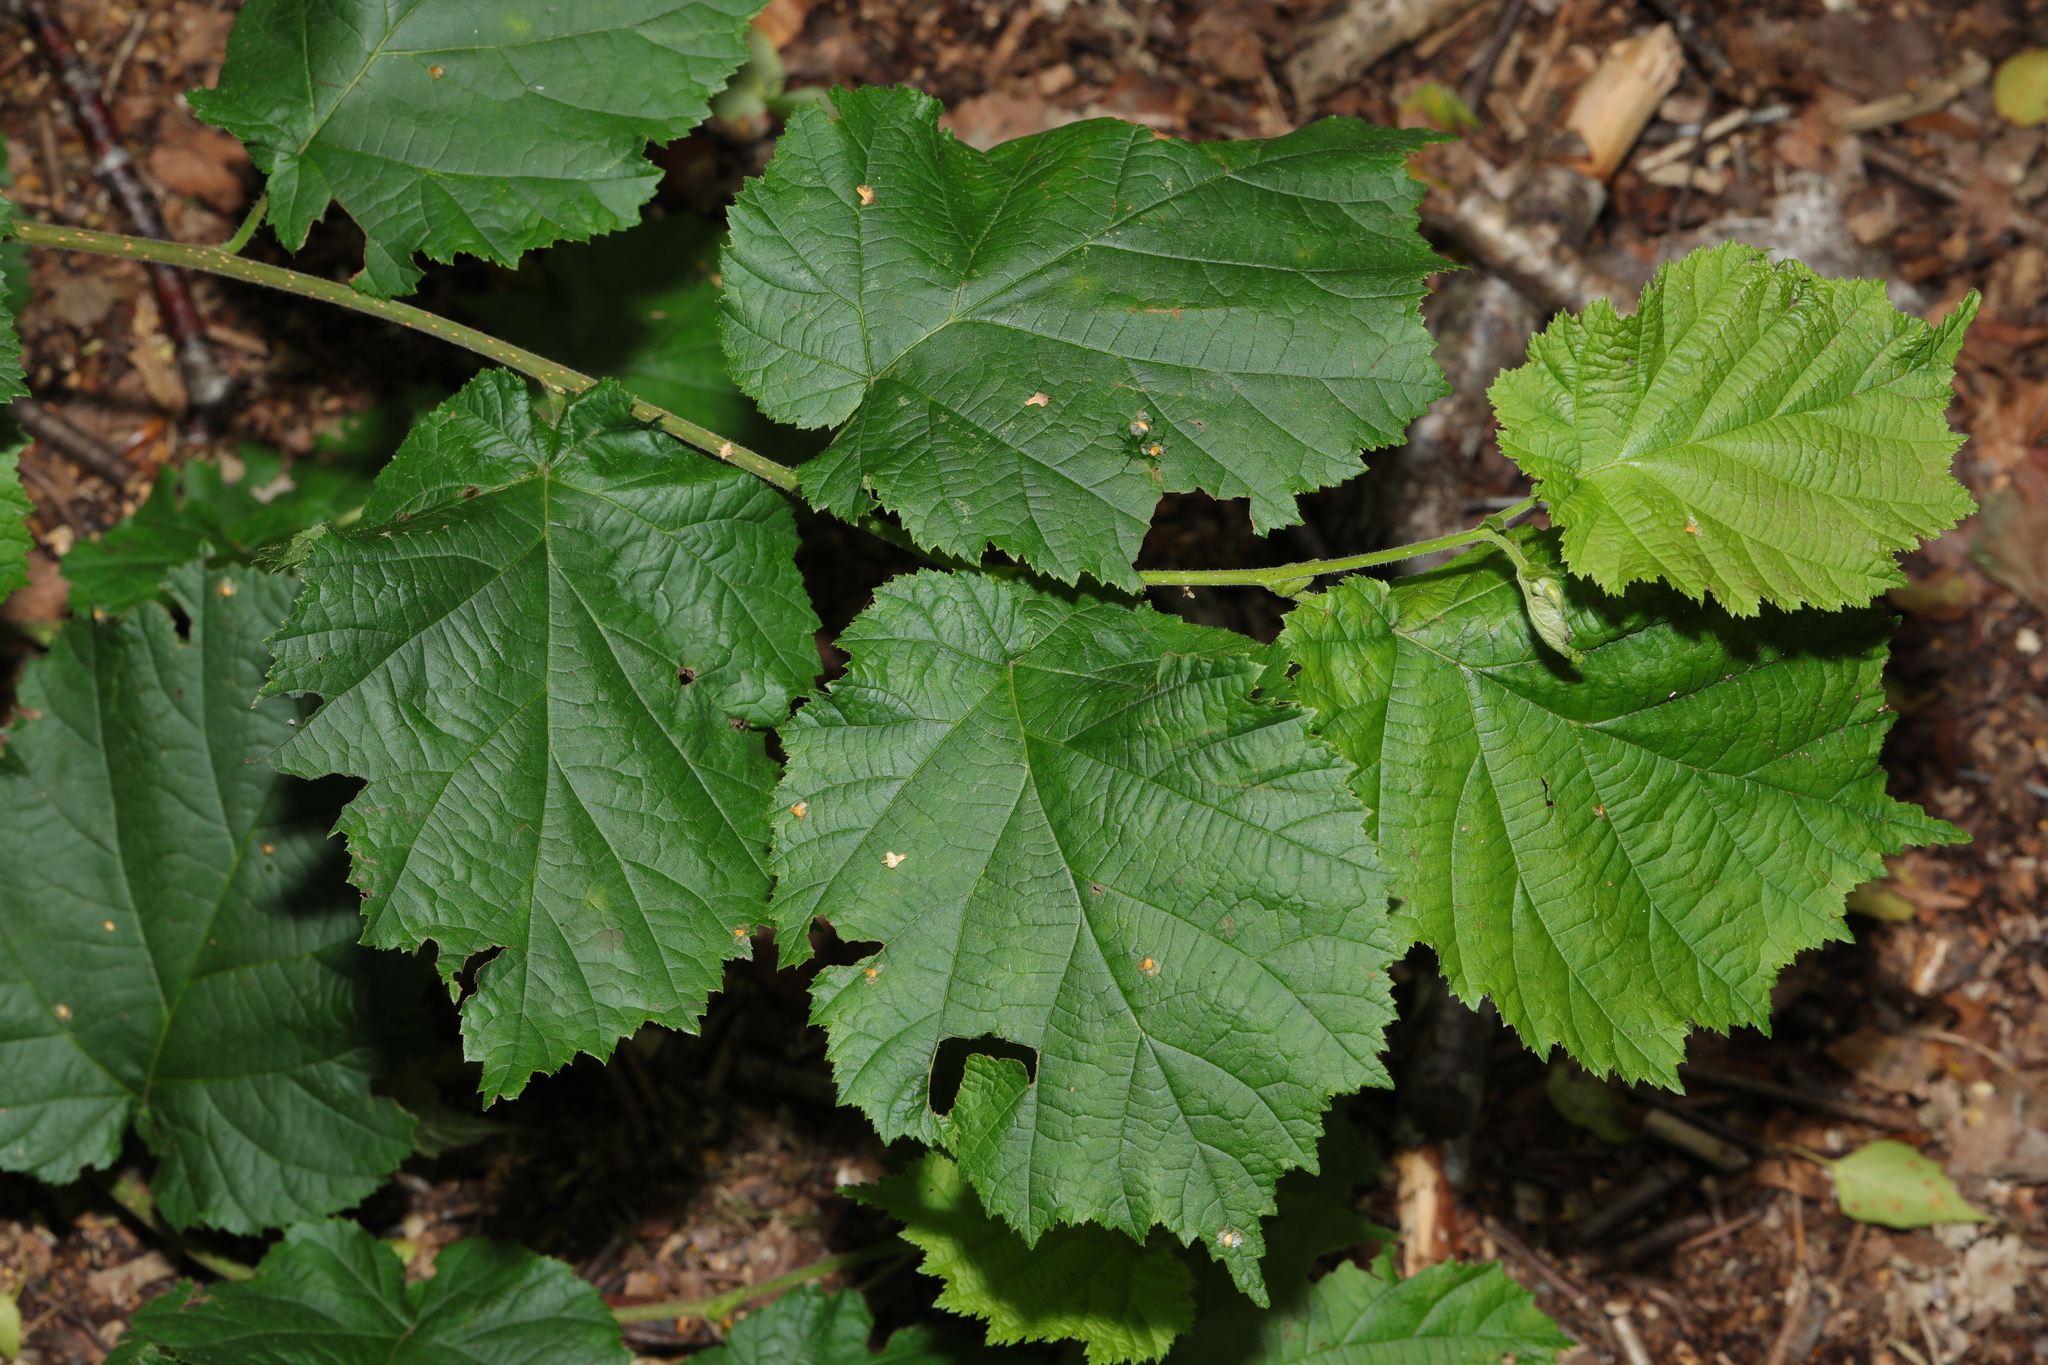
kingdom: Plantae
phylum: Tracheophyta
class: Magnoliopsida
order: Fagales
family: Betulaceae
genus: Corylus
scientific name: Corylus avellana
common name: European hazel
